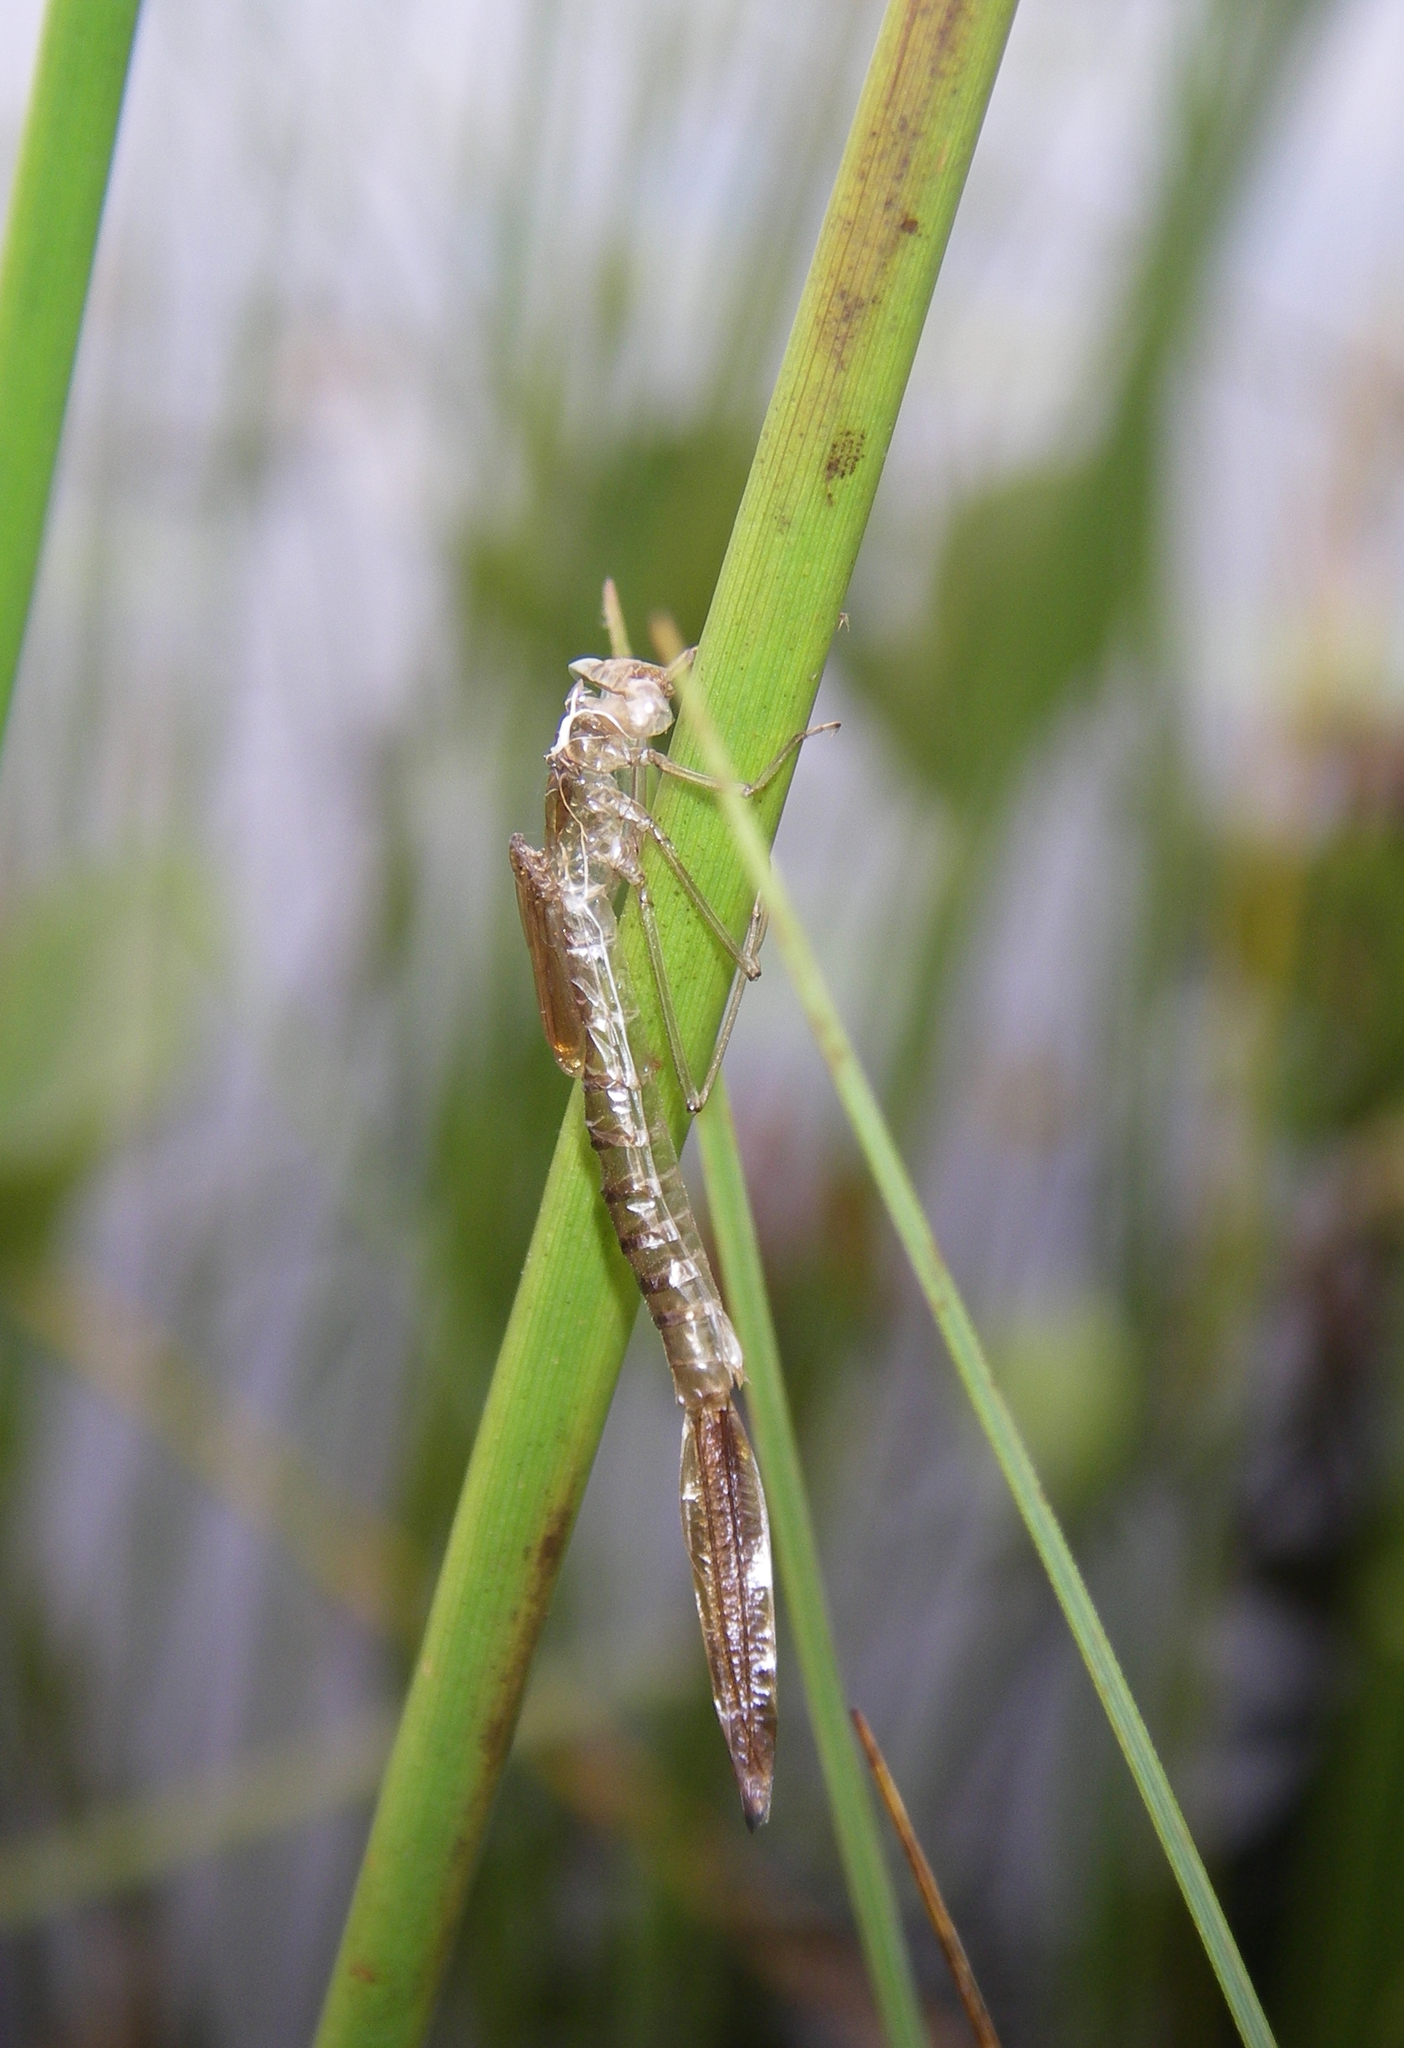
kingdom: Animalia
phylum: Arthropoda
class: Insecta
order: Odonata
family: Lestidae
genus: Lestes
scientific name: Lestes sponsa
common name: Common spreadwing
